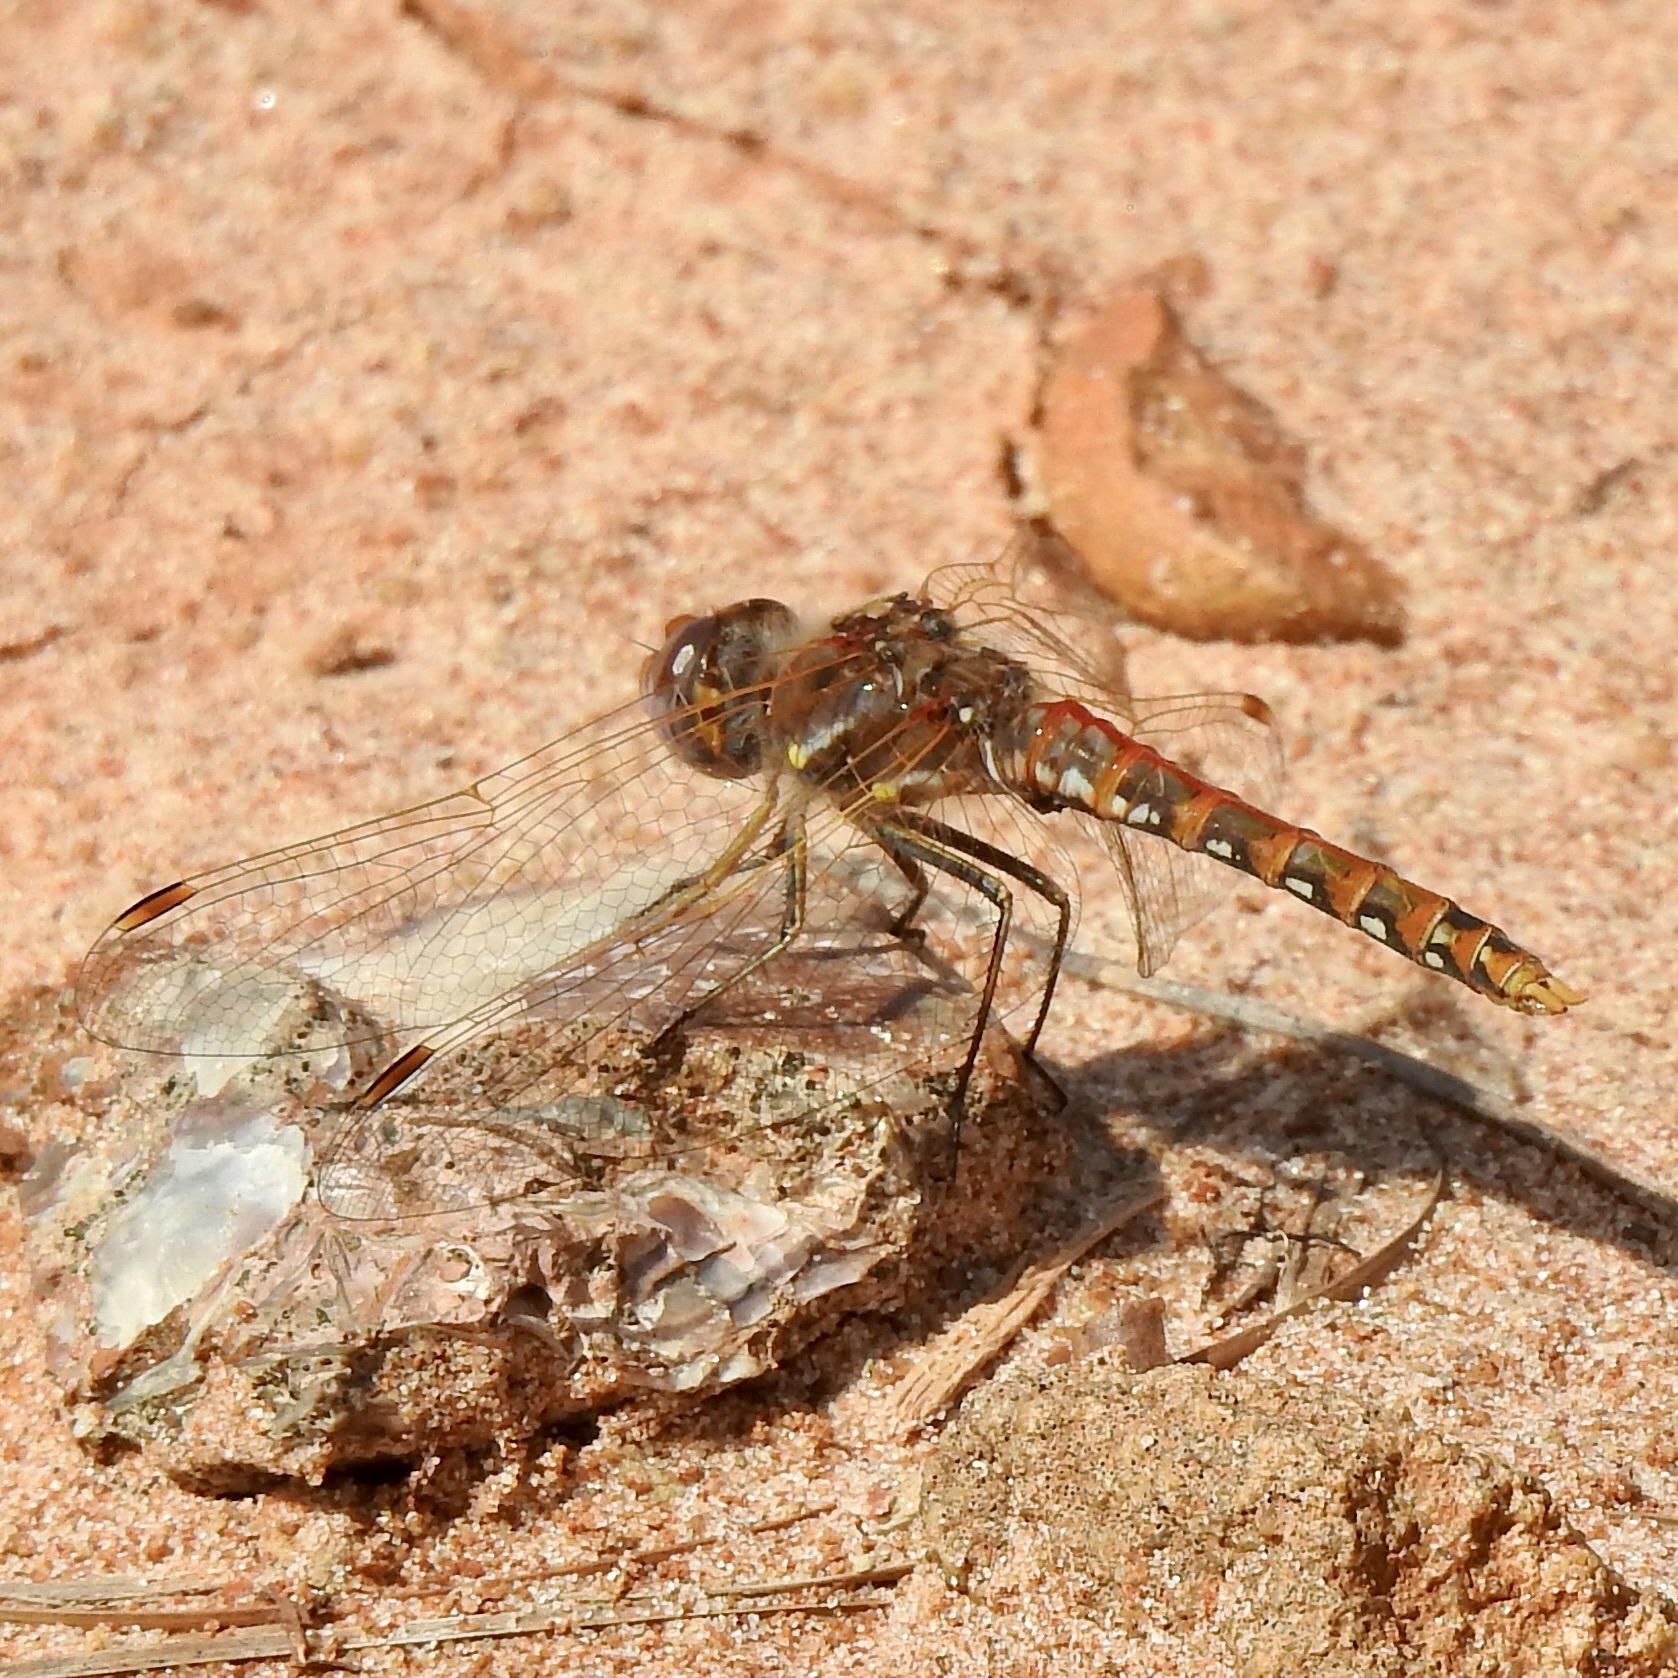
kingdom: Animalia
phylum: Arthropoda
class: Insecta
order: Odonata
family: Libellulidae
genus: Sympetrum
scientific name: Sympetrum corruptum
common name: Variegated meadowhawk
